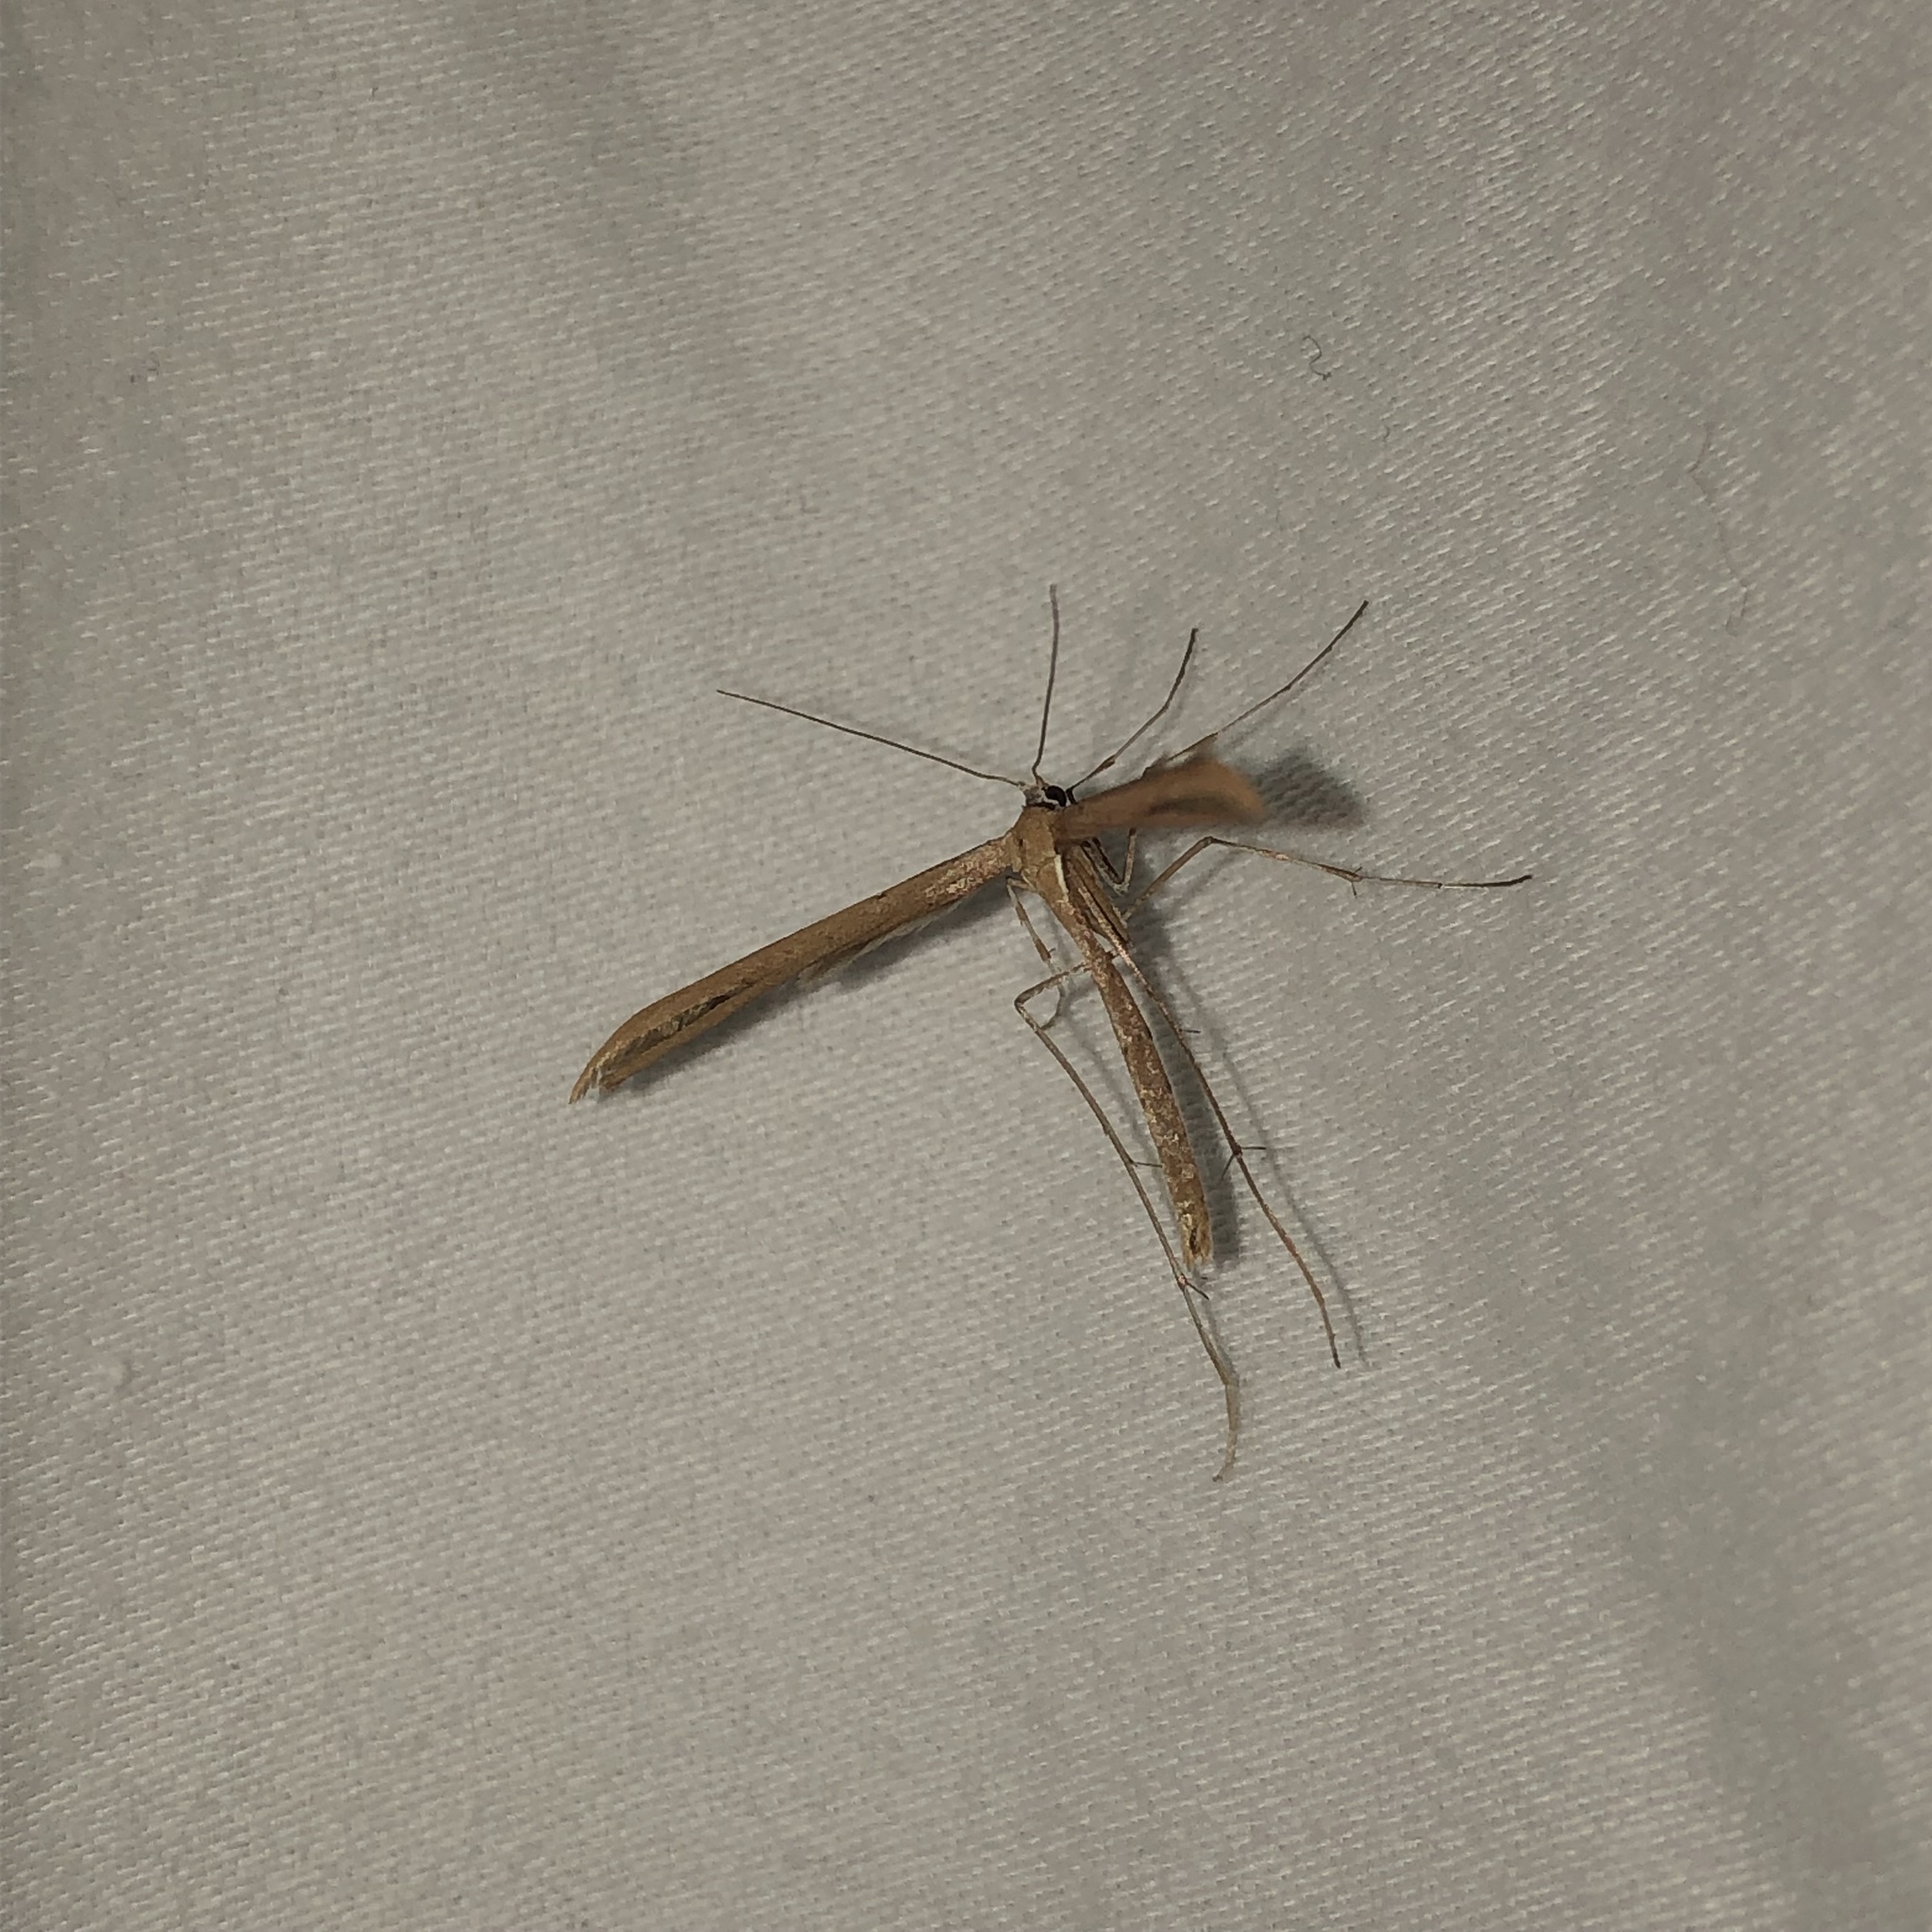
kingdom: Animalia
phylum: Arthropoda
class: Insecta
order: Lepidoptera
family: Pterophoridae
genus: Emmelina
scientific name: Emmelina monodactyla
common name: Common plume
